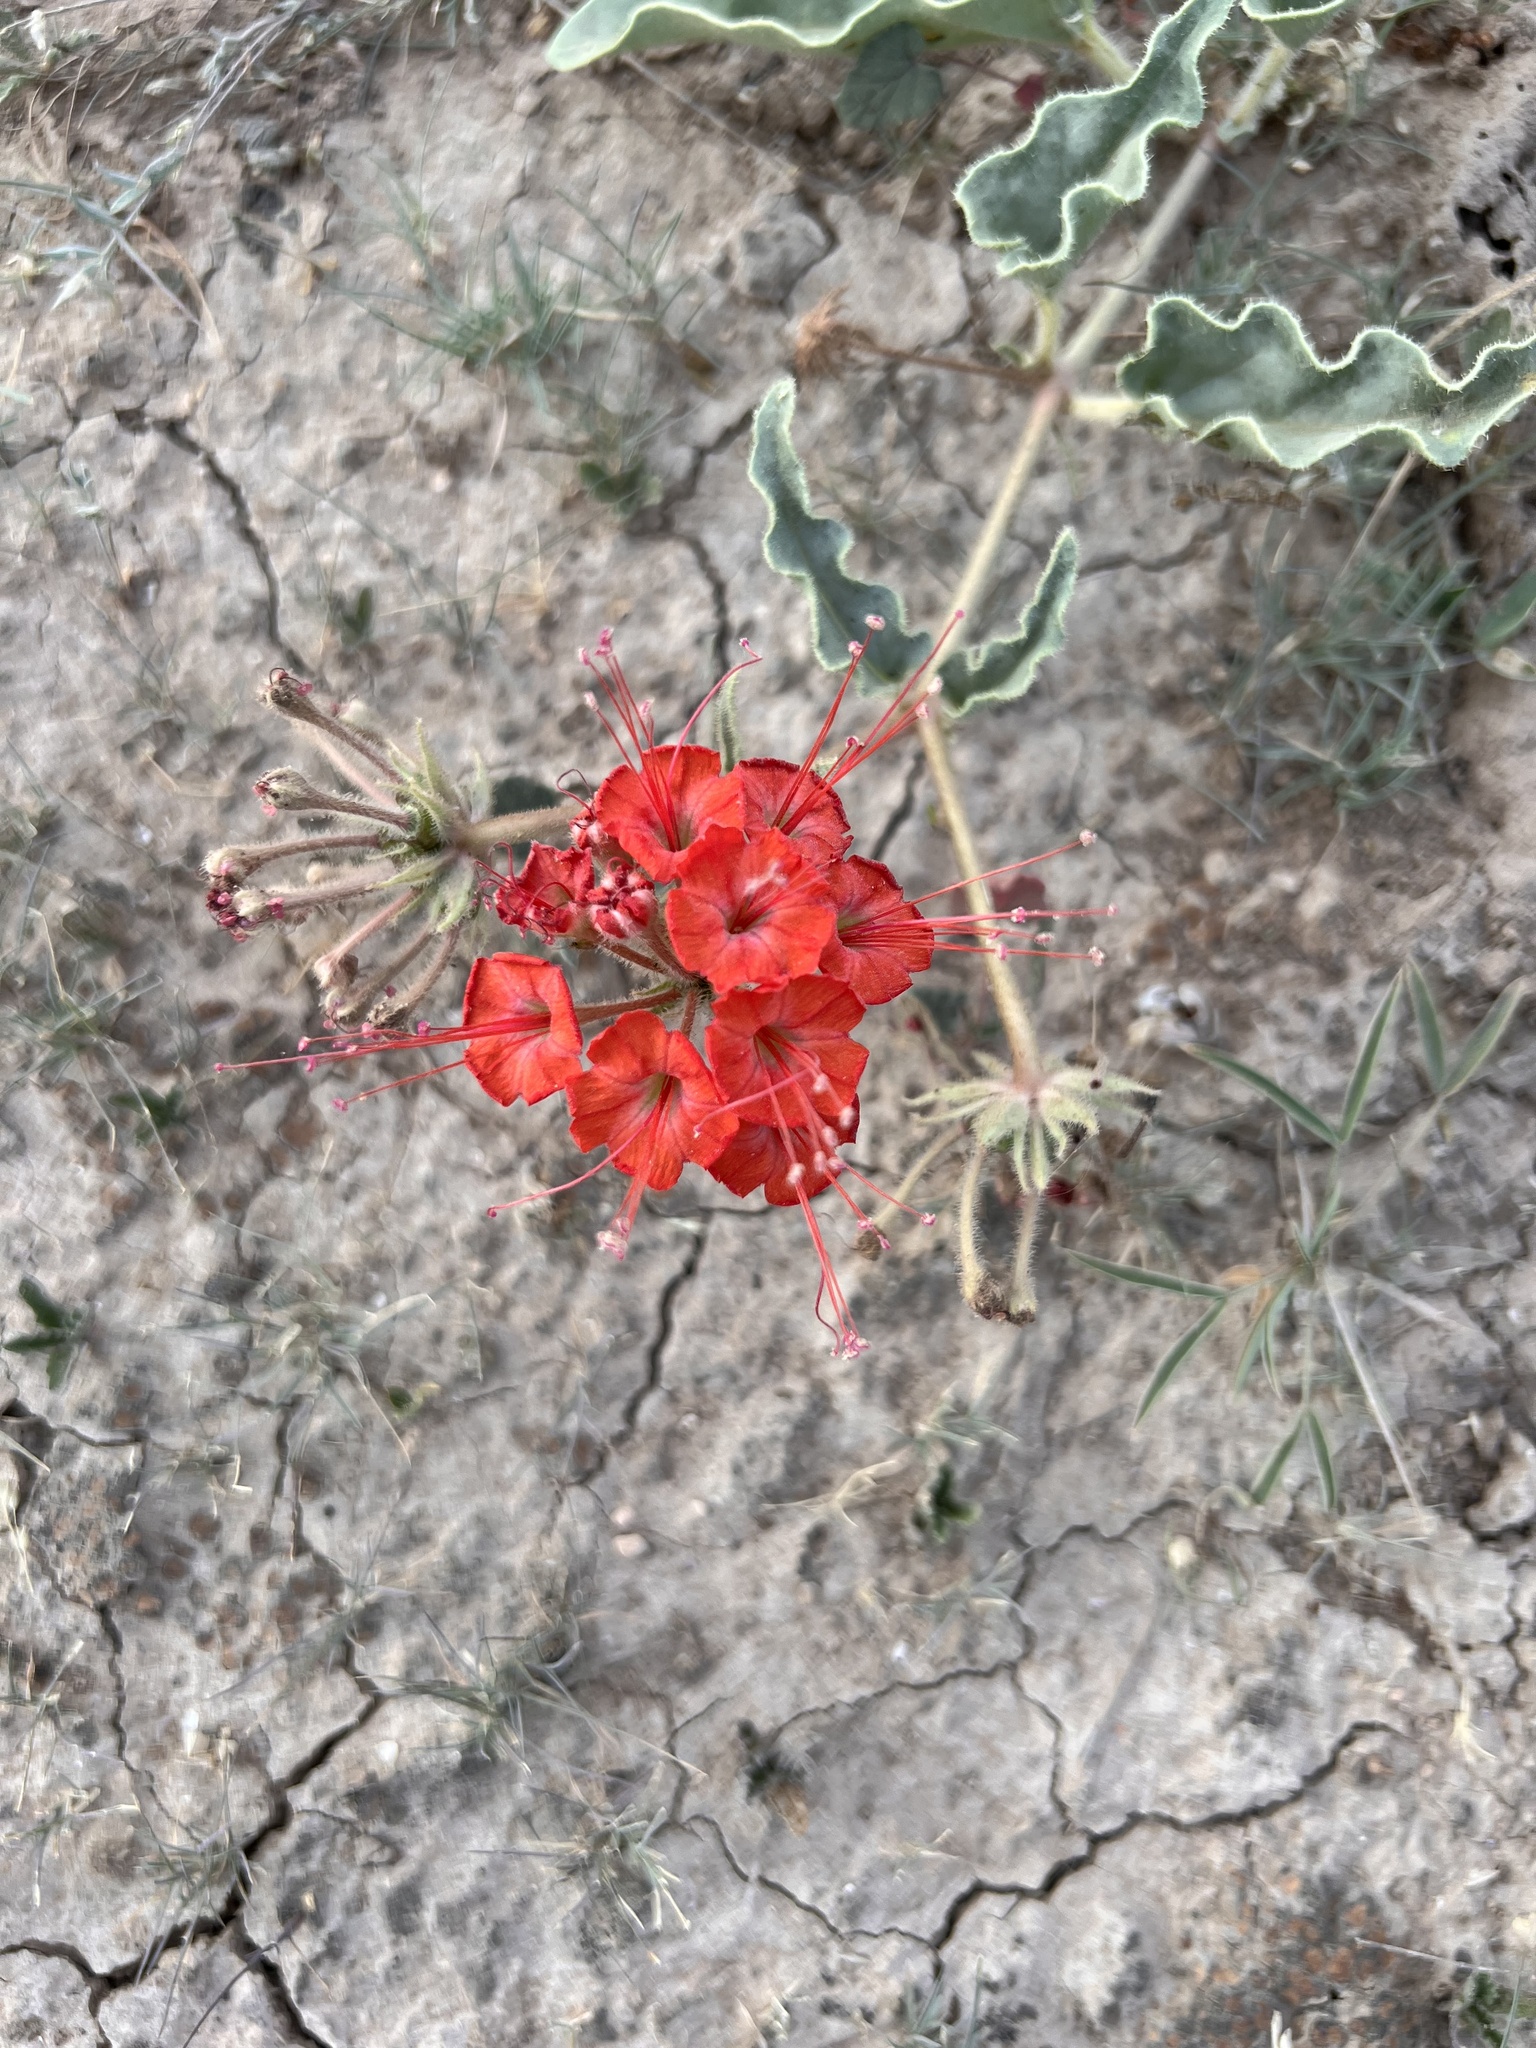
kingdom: Plantae
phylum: Tracheophyta
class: Magnoliopsida
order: Caryophyllales
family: Nyctaginaceae
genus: Nyctaginia
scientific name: Nyctaginia capitata
